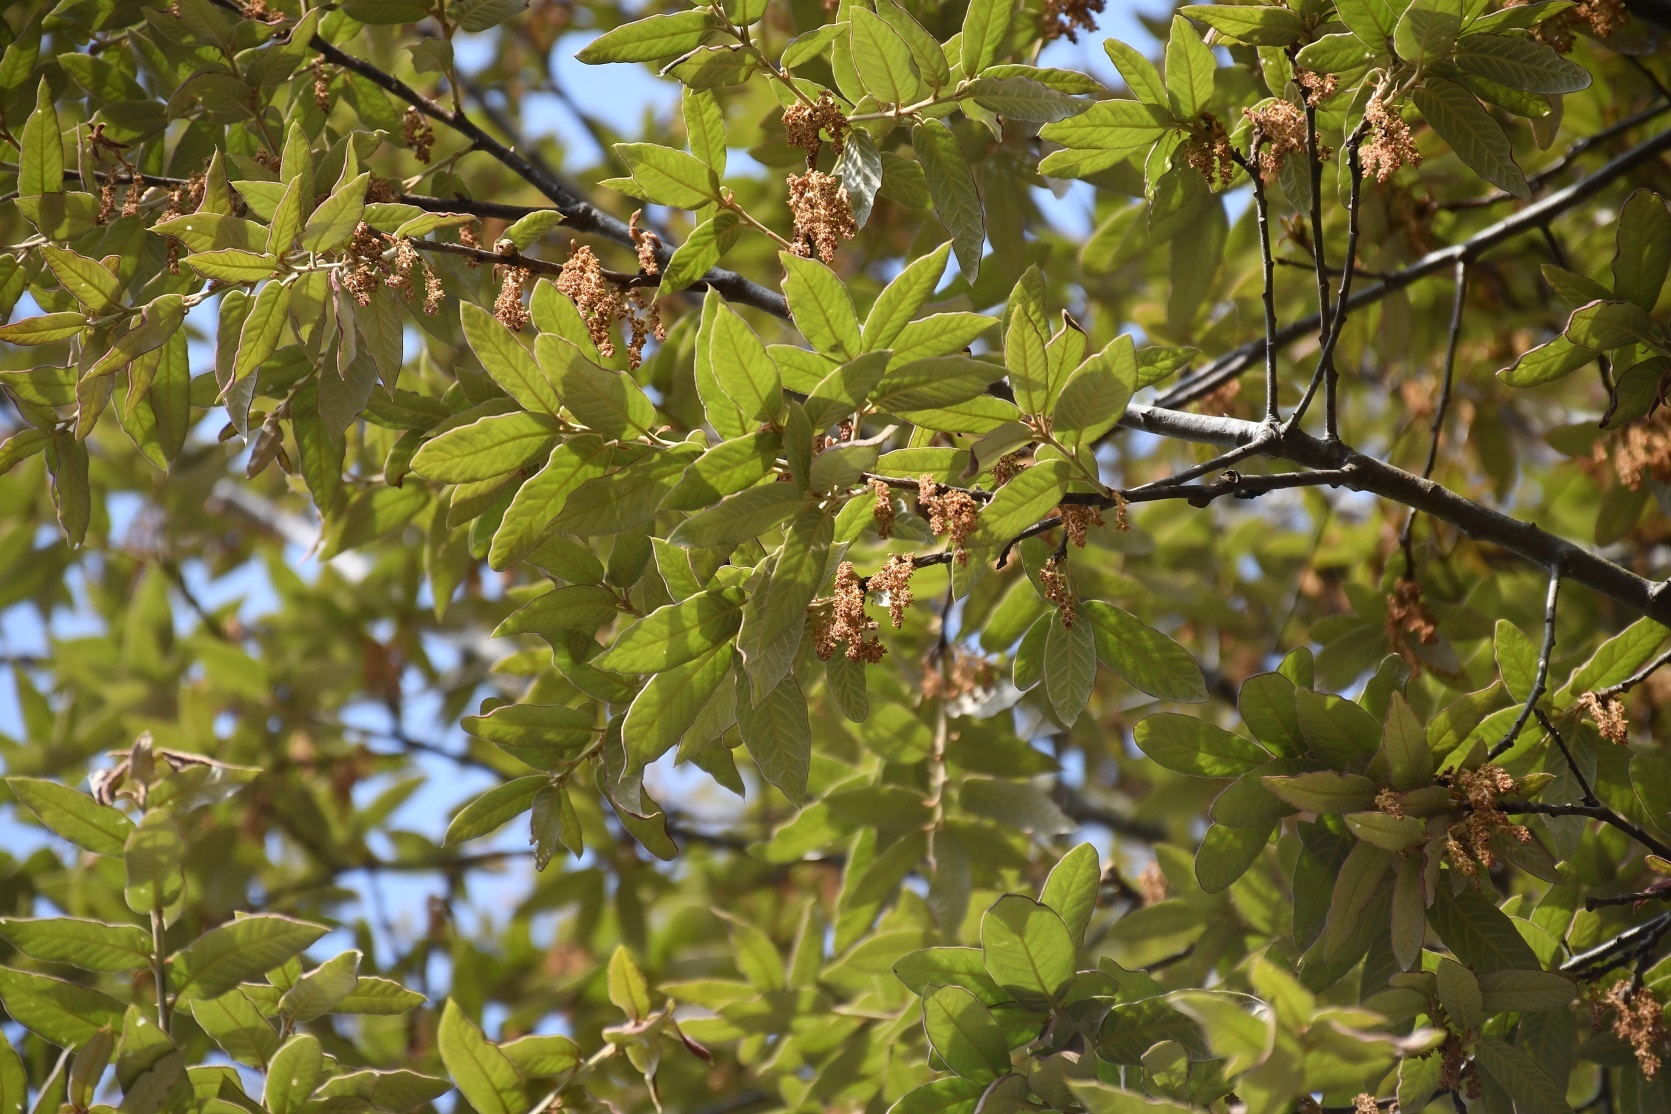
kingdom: Plantae
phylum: Tracheophyta
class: Magnoliopsida
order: Fagales
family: Fagaceae
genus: Quercus
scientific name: Quercus dysophylla
